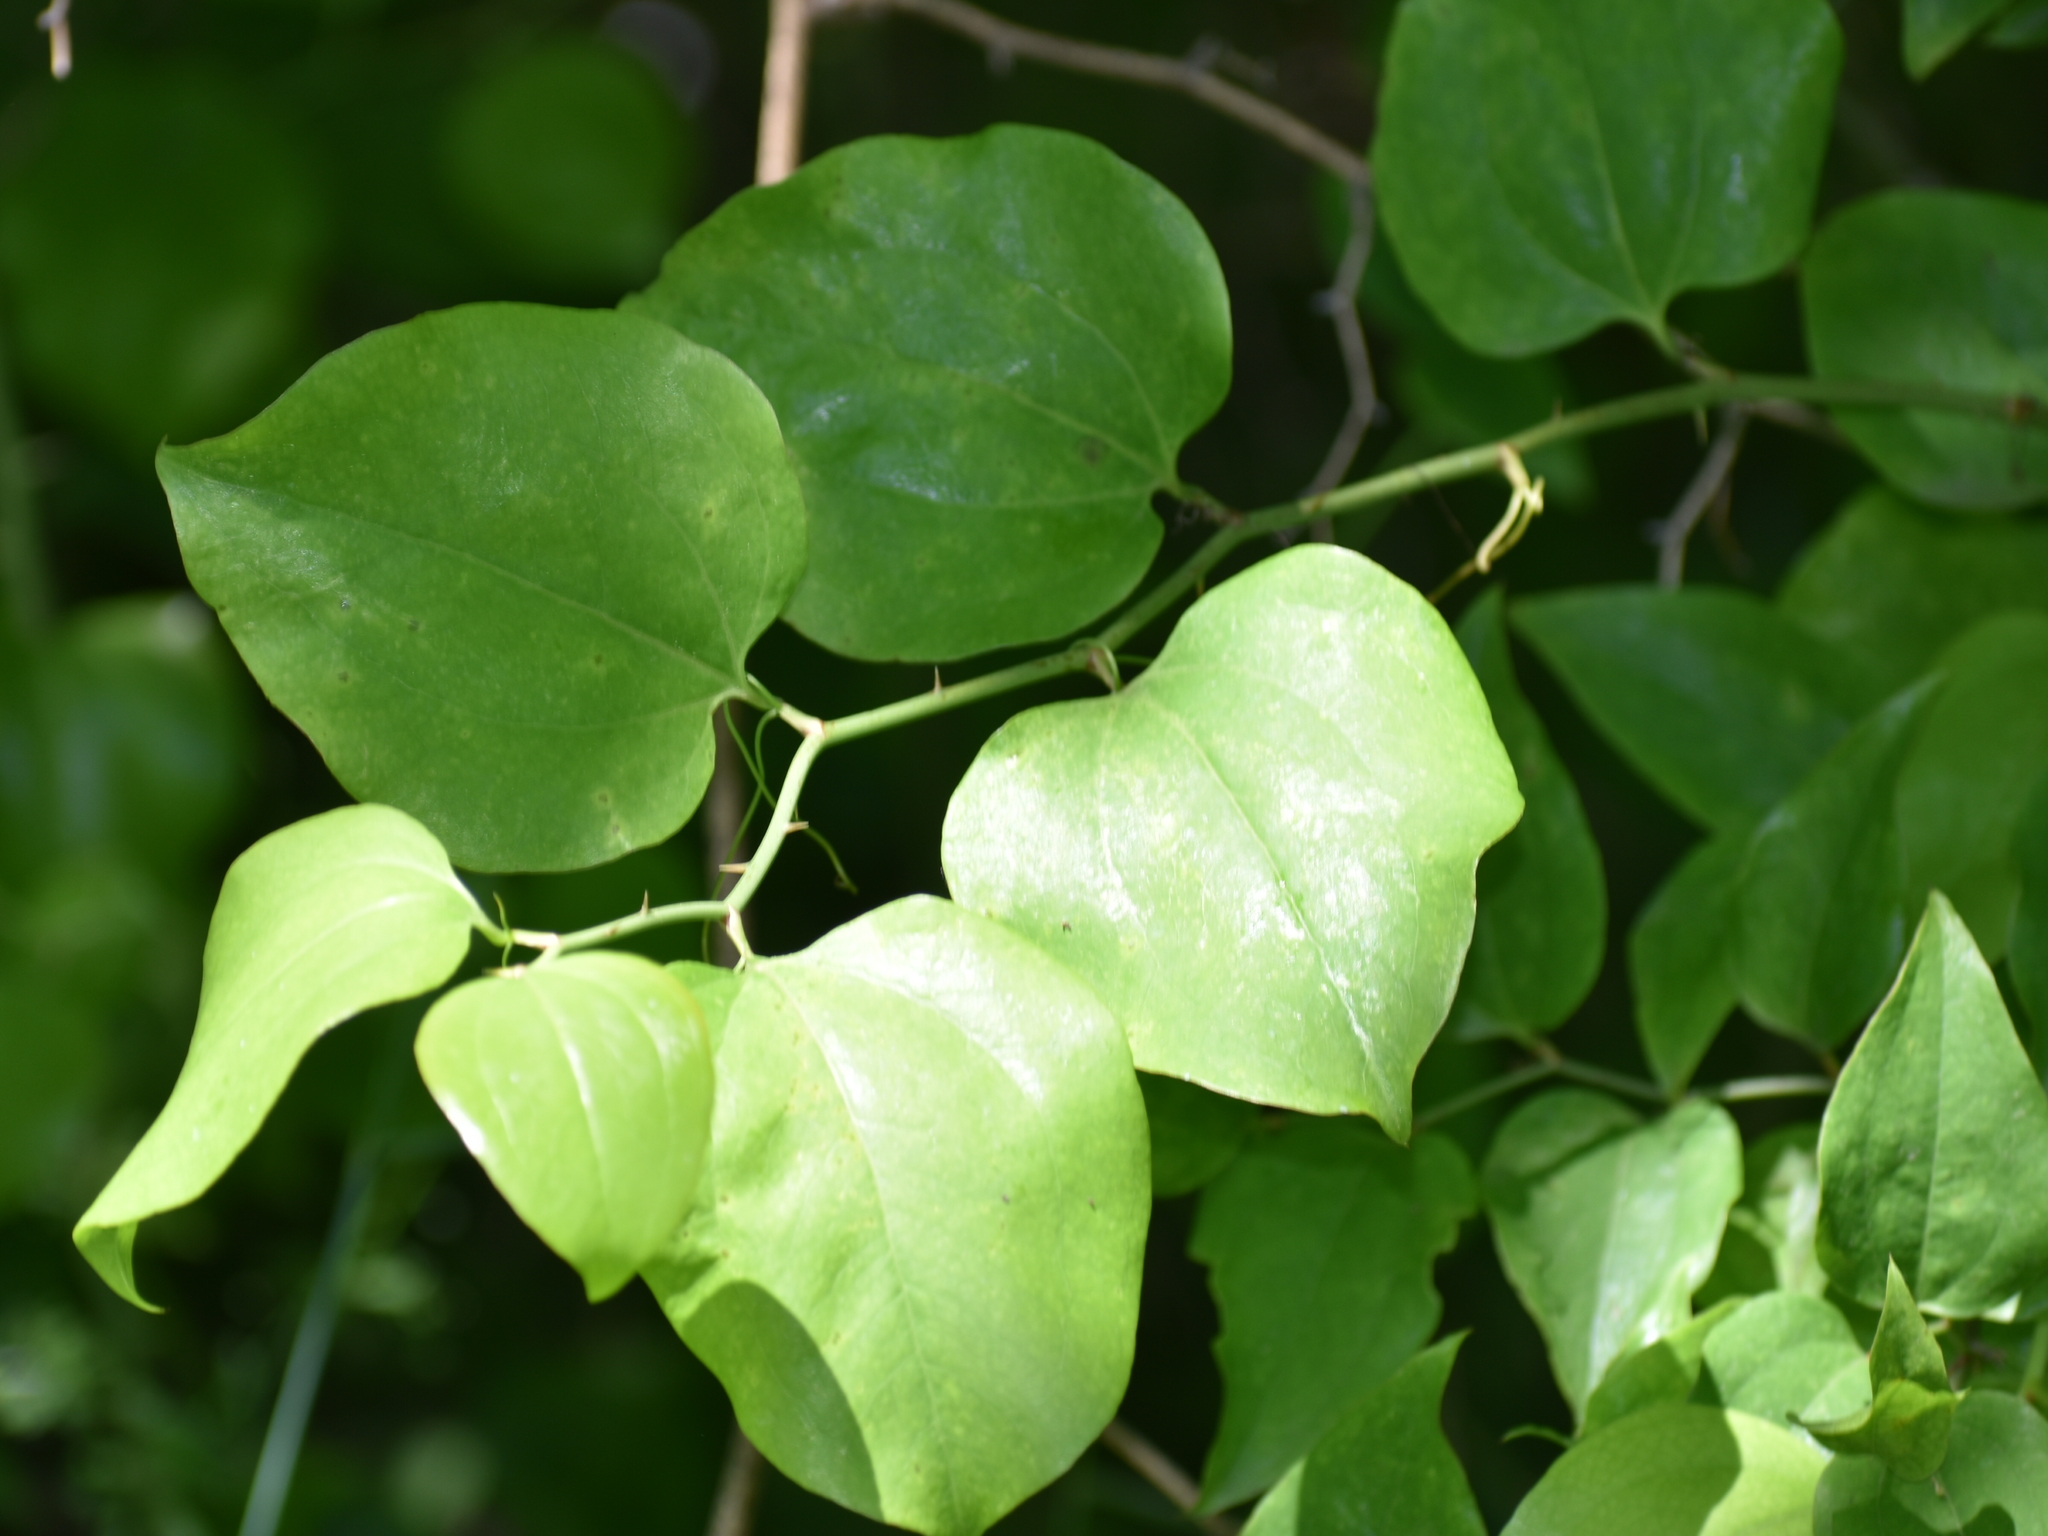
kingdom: Plantae
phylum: Tracheophyta
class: Liliopsida
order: Liliales
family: Smilacaceae
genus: Smilax
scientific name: Smilax rotundifolia
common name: Bullbriar
